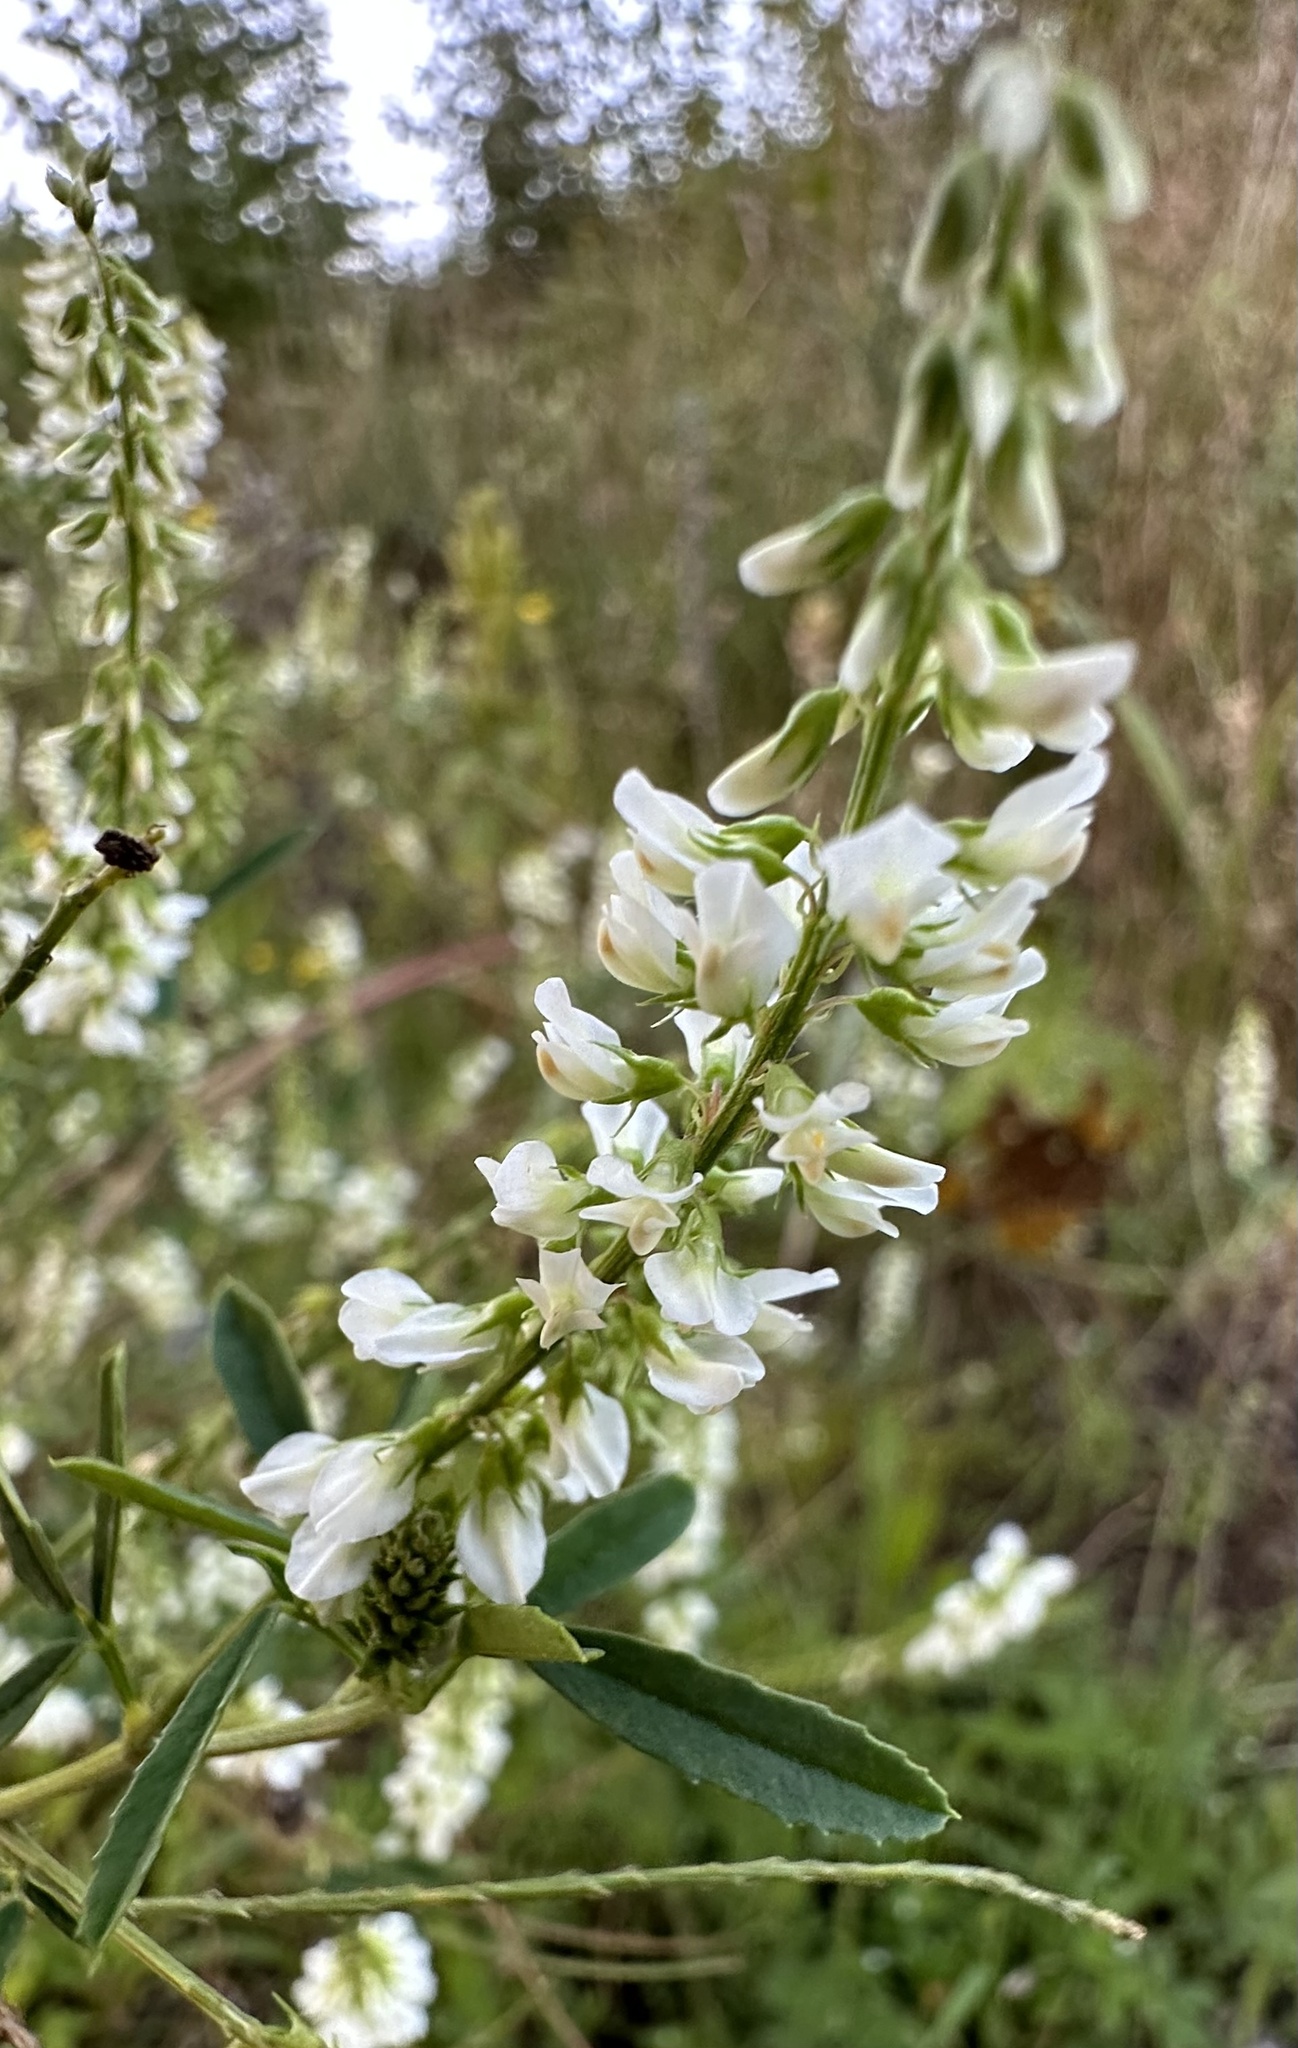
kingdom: Plantae
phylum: Tracheophyta
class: Magnoliopsida
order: Fabales
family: Fabaceae
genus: Melilotus
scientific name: Melilotus albus
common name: White melilot
